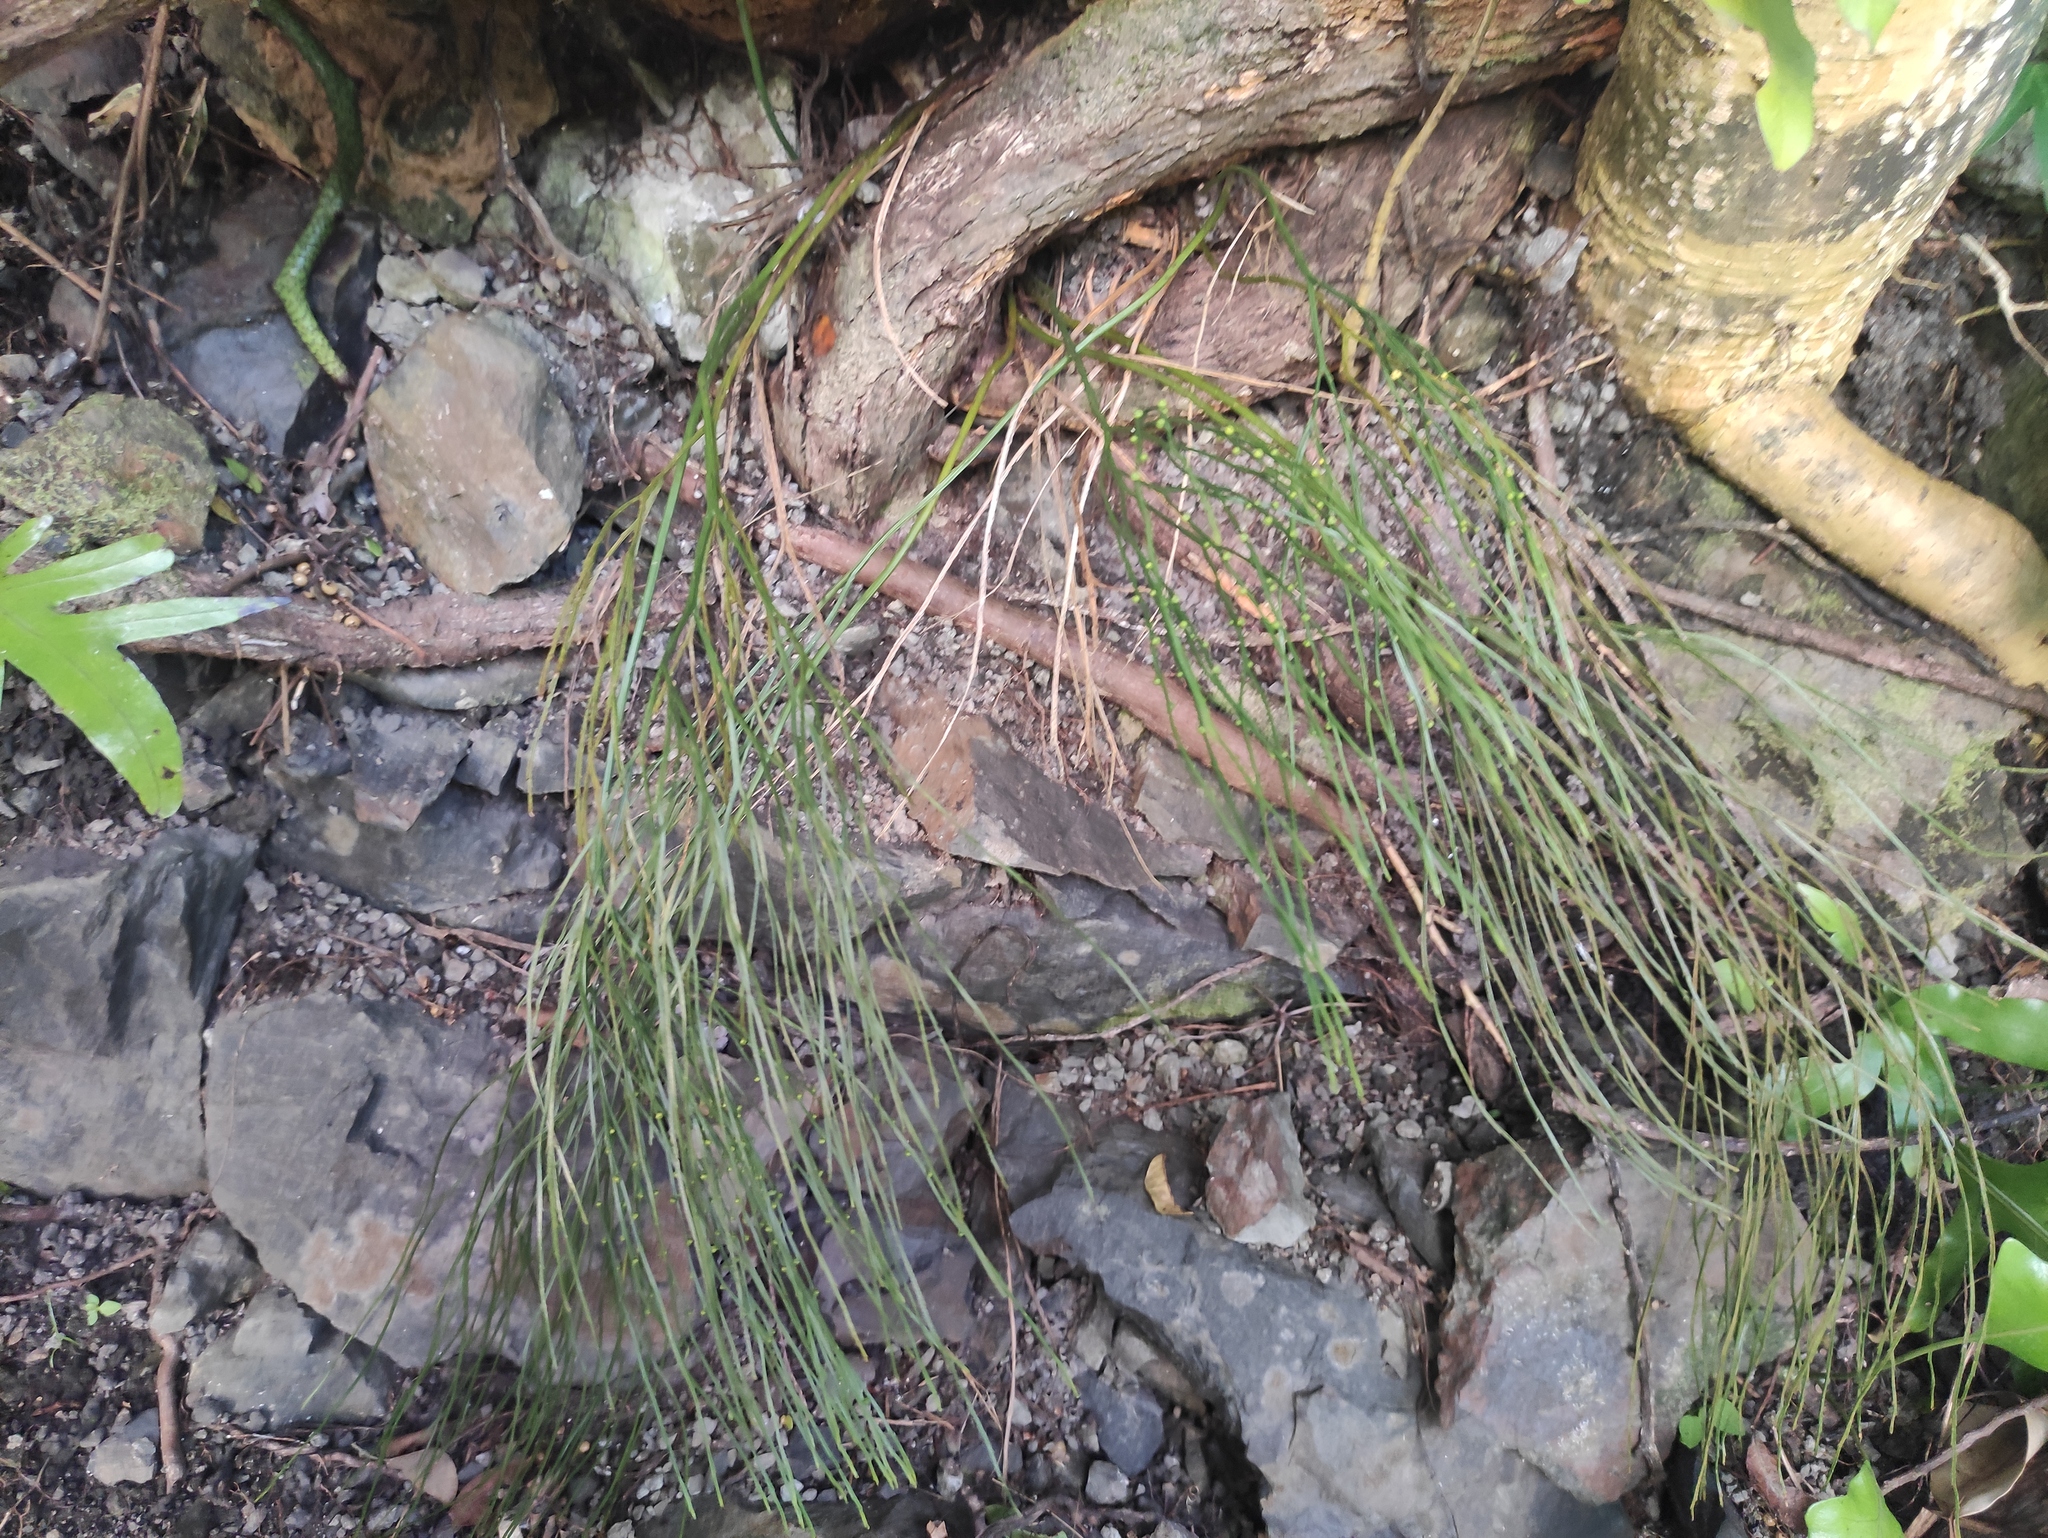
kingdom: Plantae
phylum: Tracheophyta
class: Polypodiopsida
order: Psilotales
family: Psilotaceae
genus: Psilotum
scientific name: Psilotum nudum
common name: Skeleton fork fern
